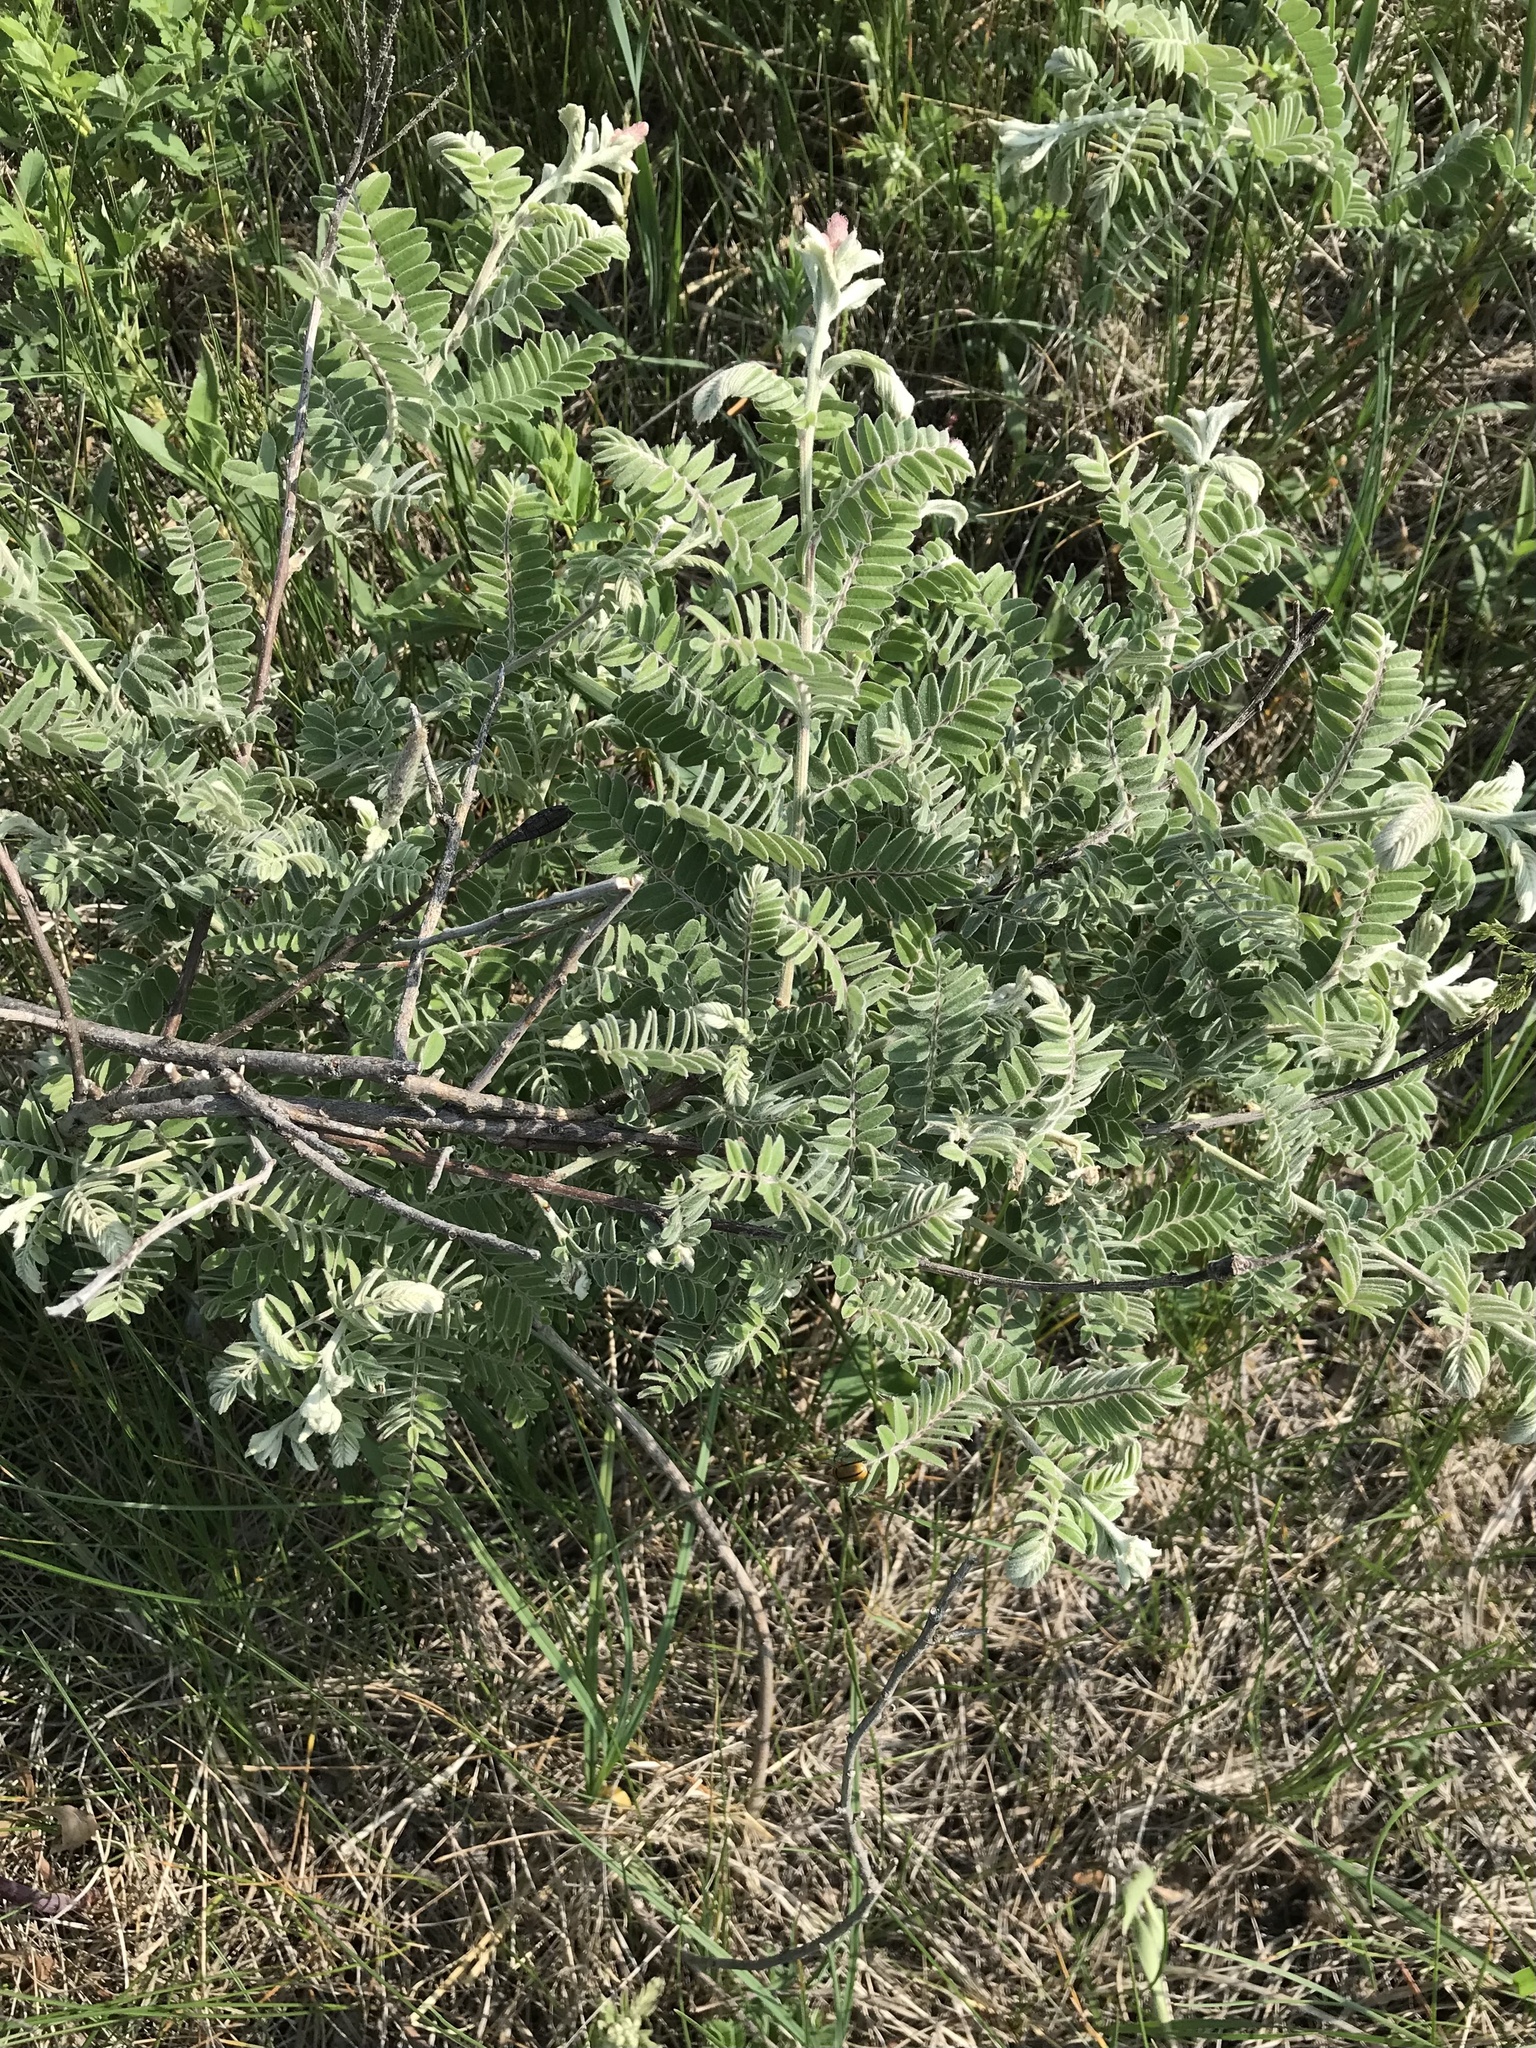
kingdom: Plantae
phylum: Tracheophyta
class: Magnoliopsida
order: Fabales
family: Fabaceae
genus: Amorpha
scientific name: Amorpha canescens
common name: Leadplant
